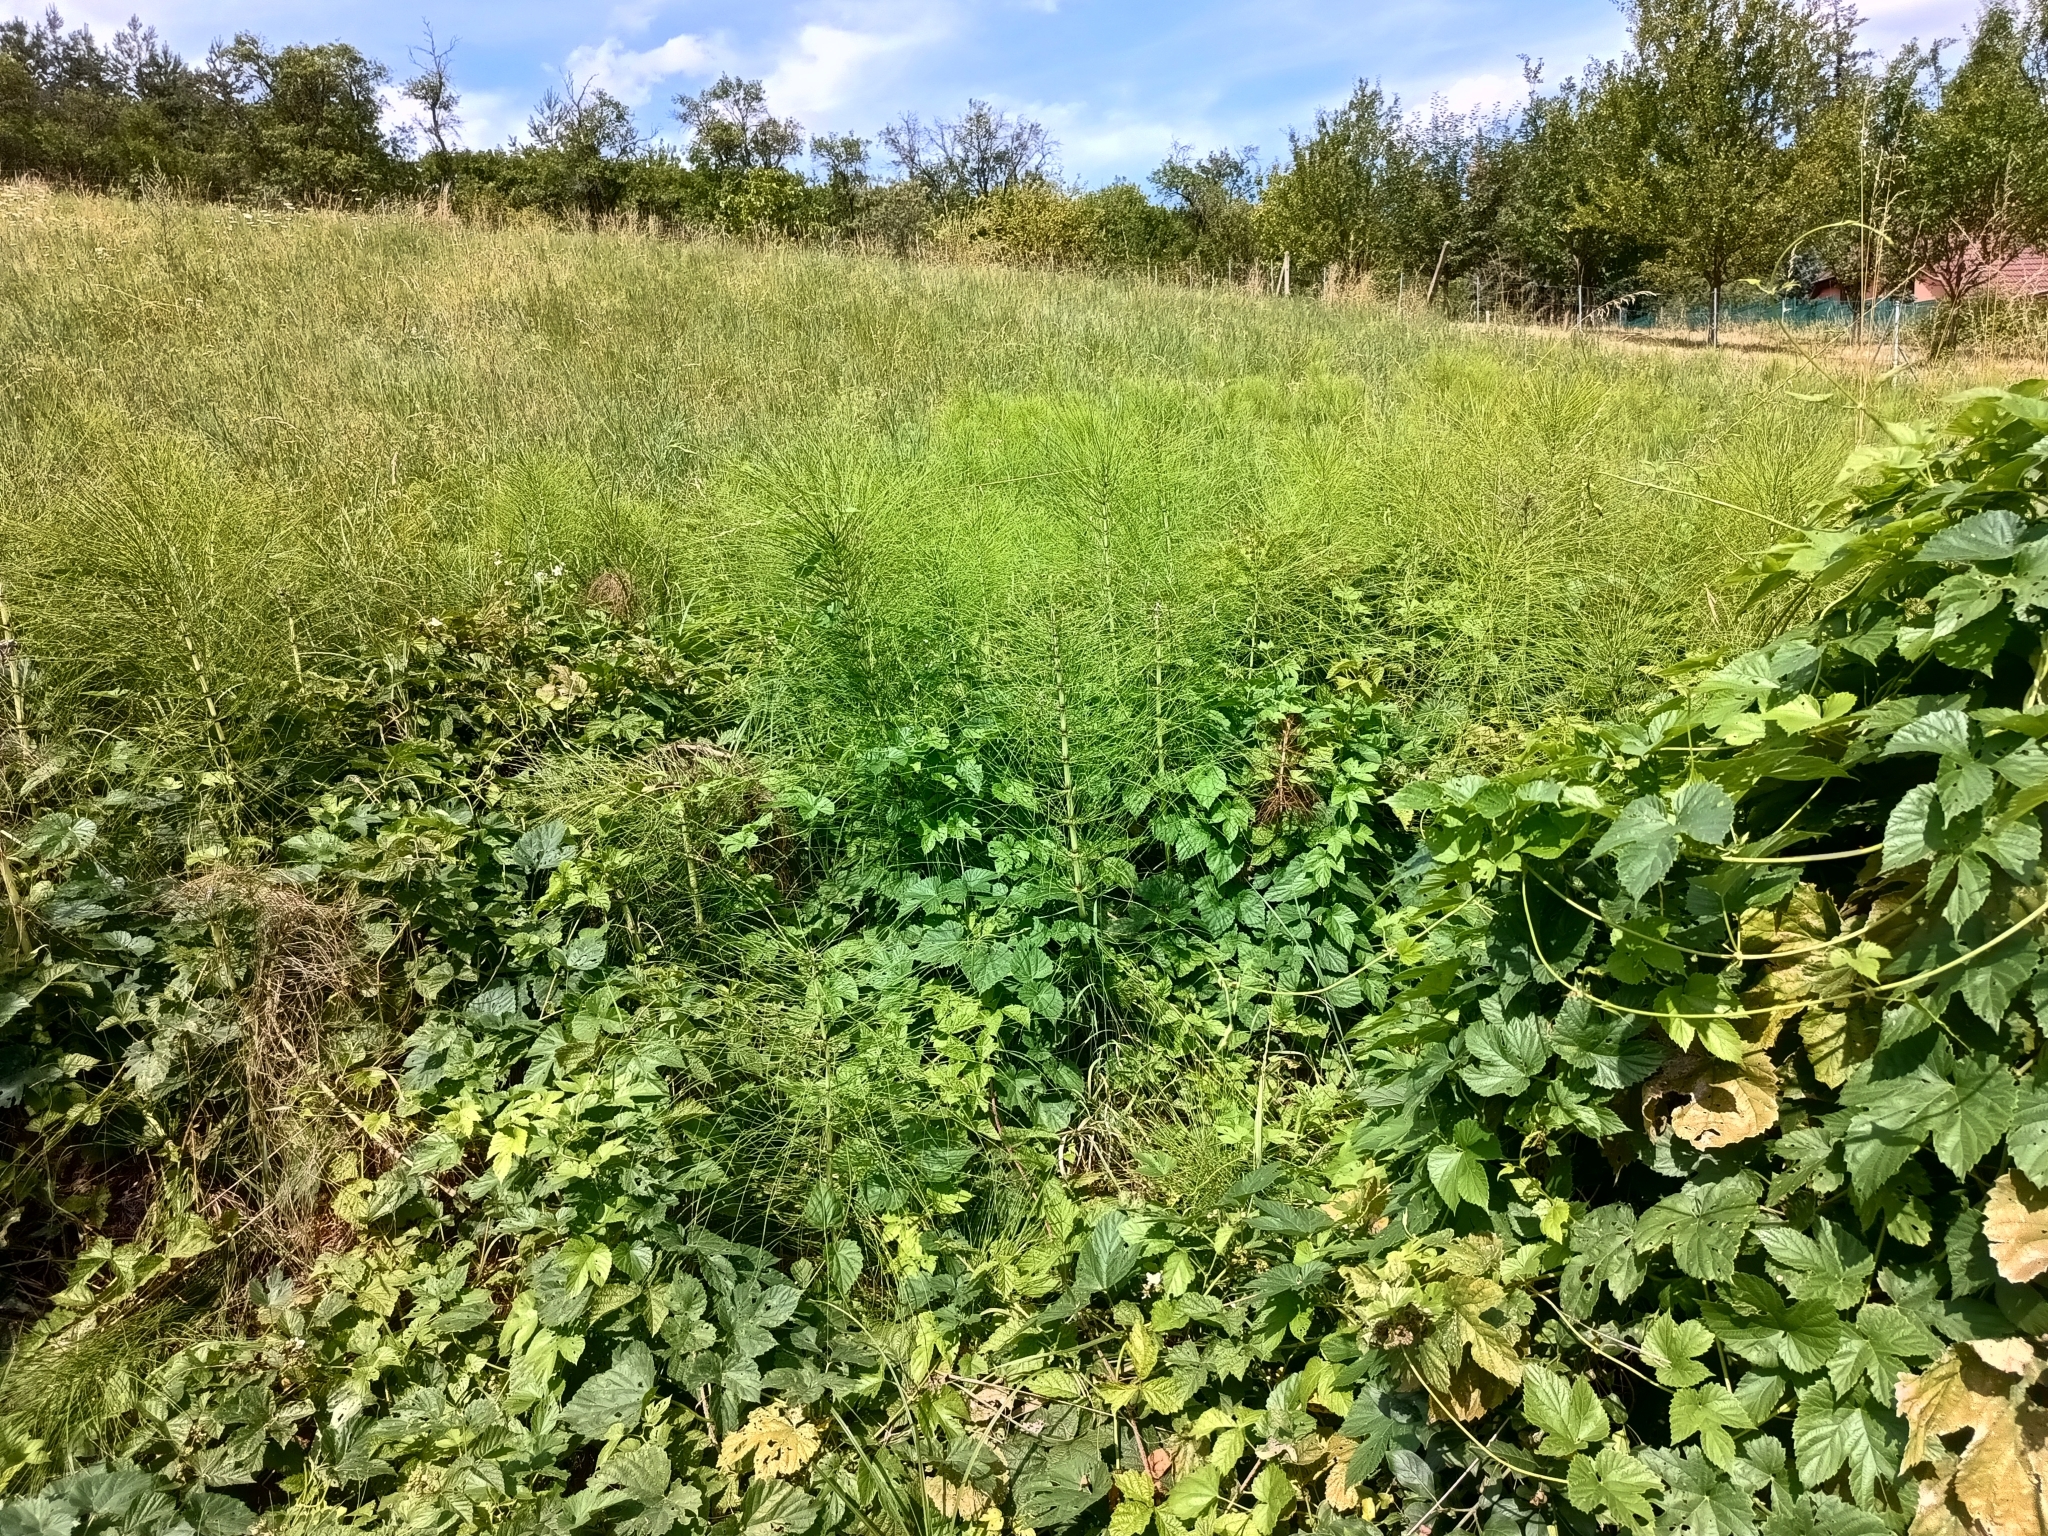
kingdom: Plantae
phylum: Tracheophyta
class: Polypodiopsida
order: Equisetales
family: Equisetaceae
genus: Equisetum
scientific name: Equisetum telmateia
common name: Great horsetail
